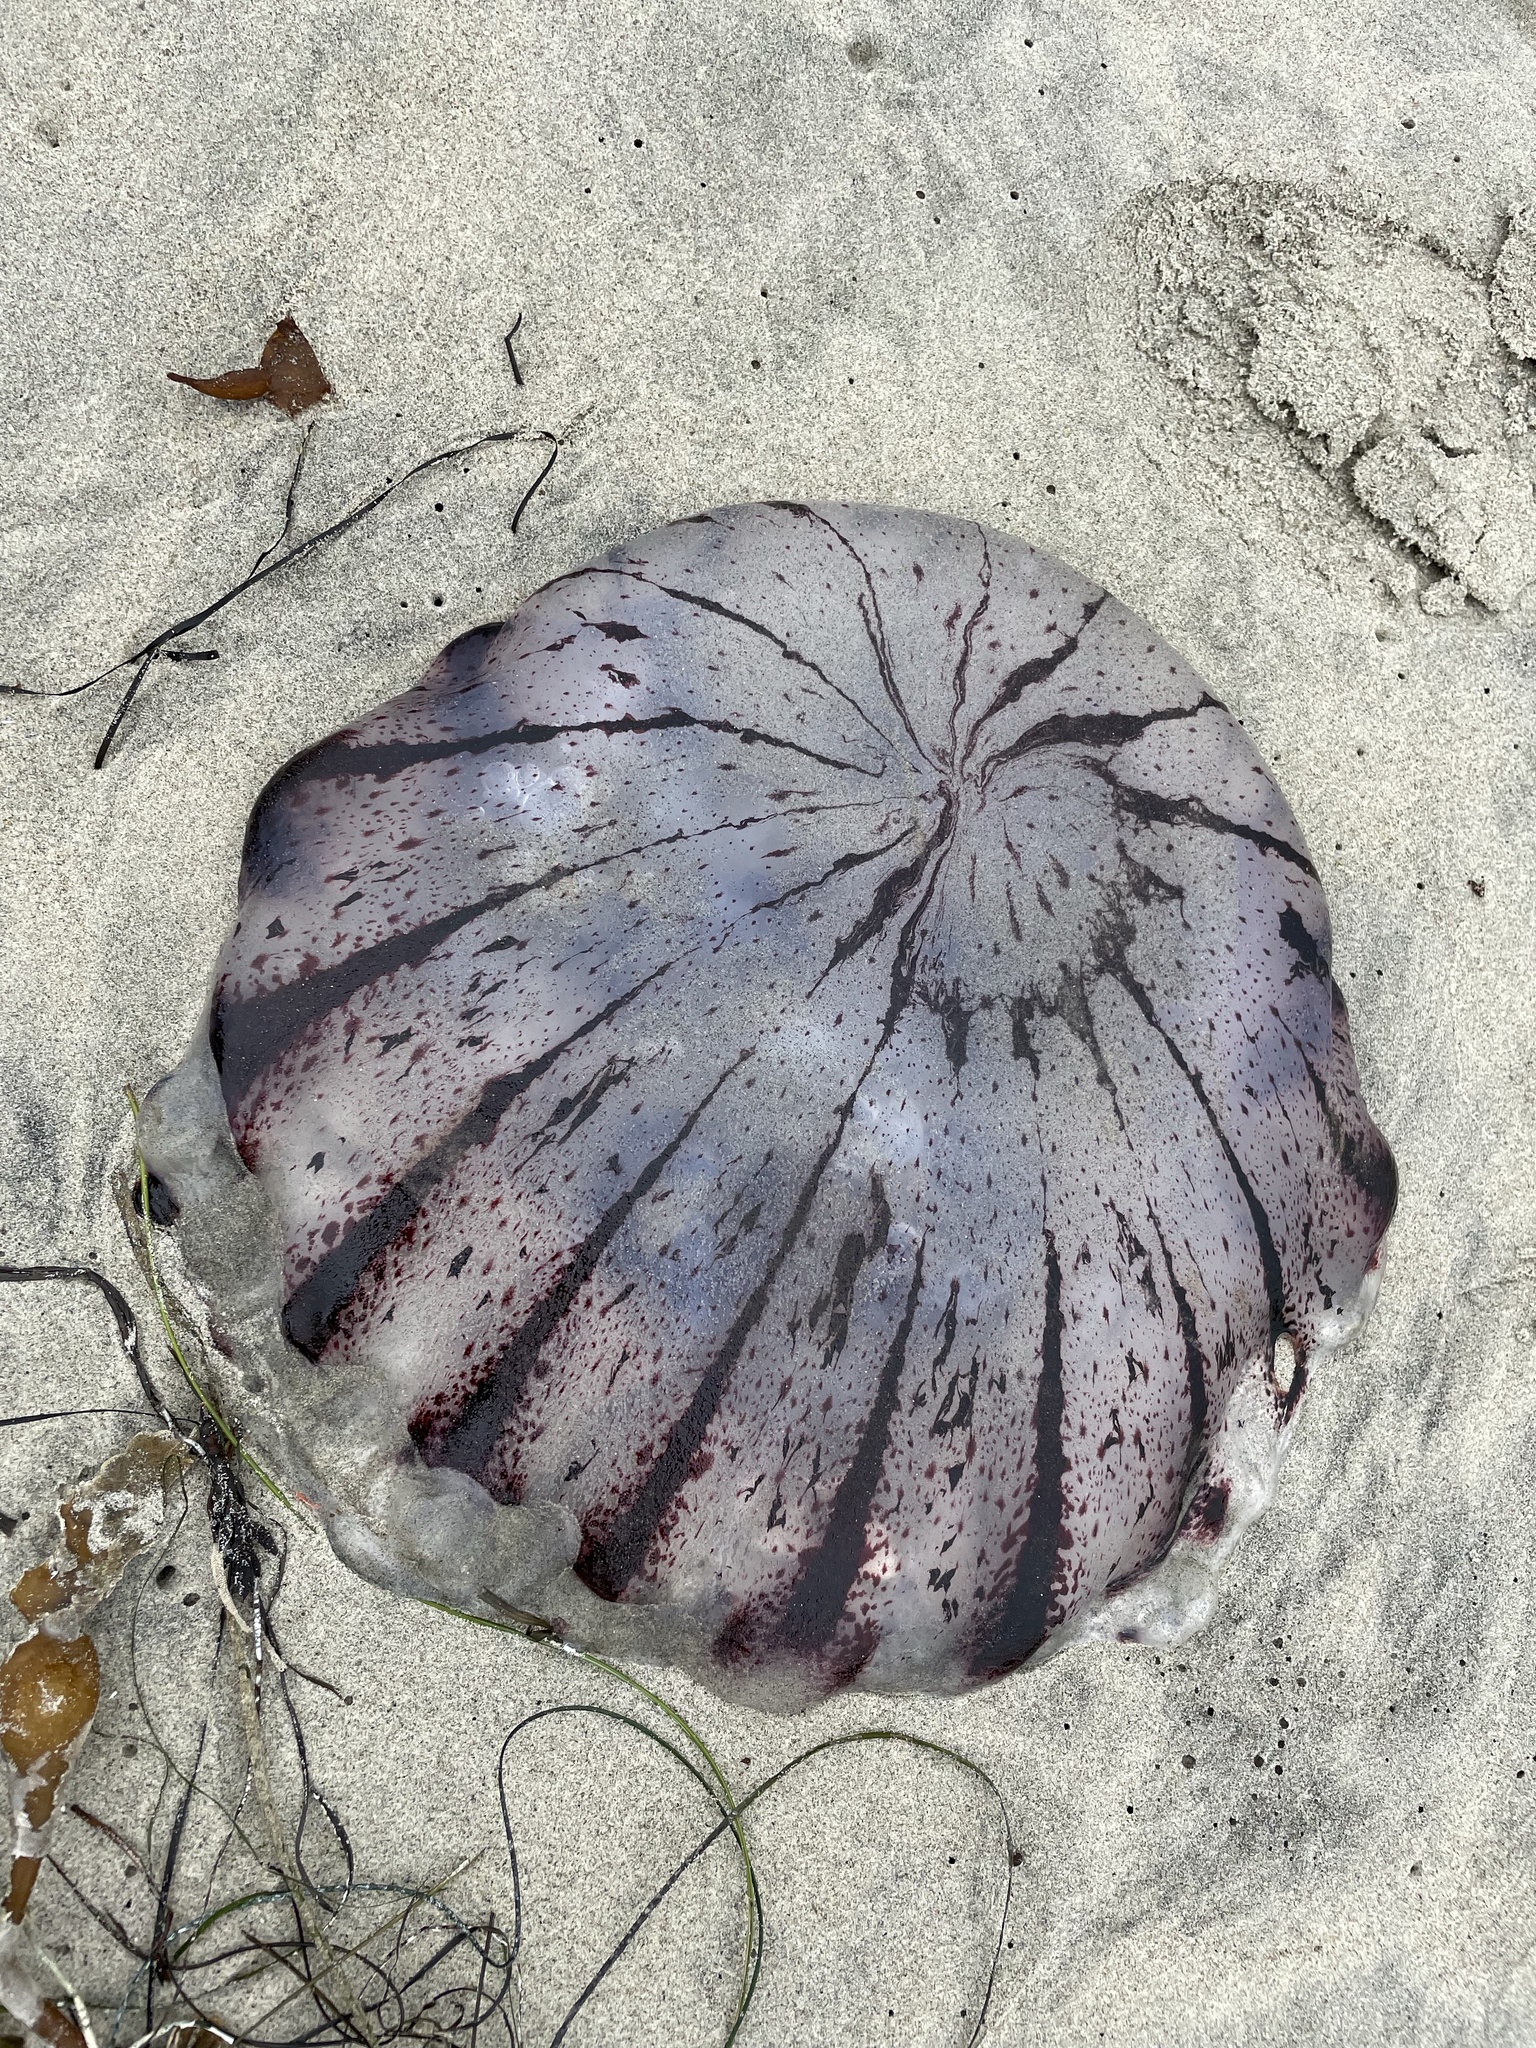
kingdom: Animalia
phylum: Cnidaria
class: Scyphozoa
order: Semaeostomeae
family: Pelagiidae
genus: Chrysaora
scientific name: Chrysaora colorata
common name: Purple-striped jellyfish
